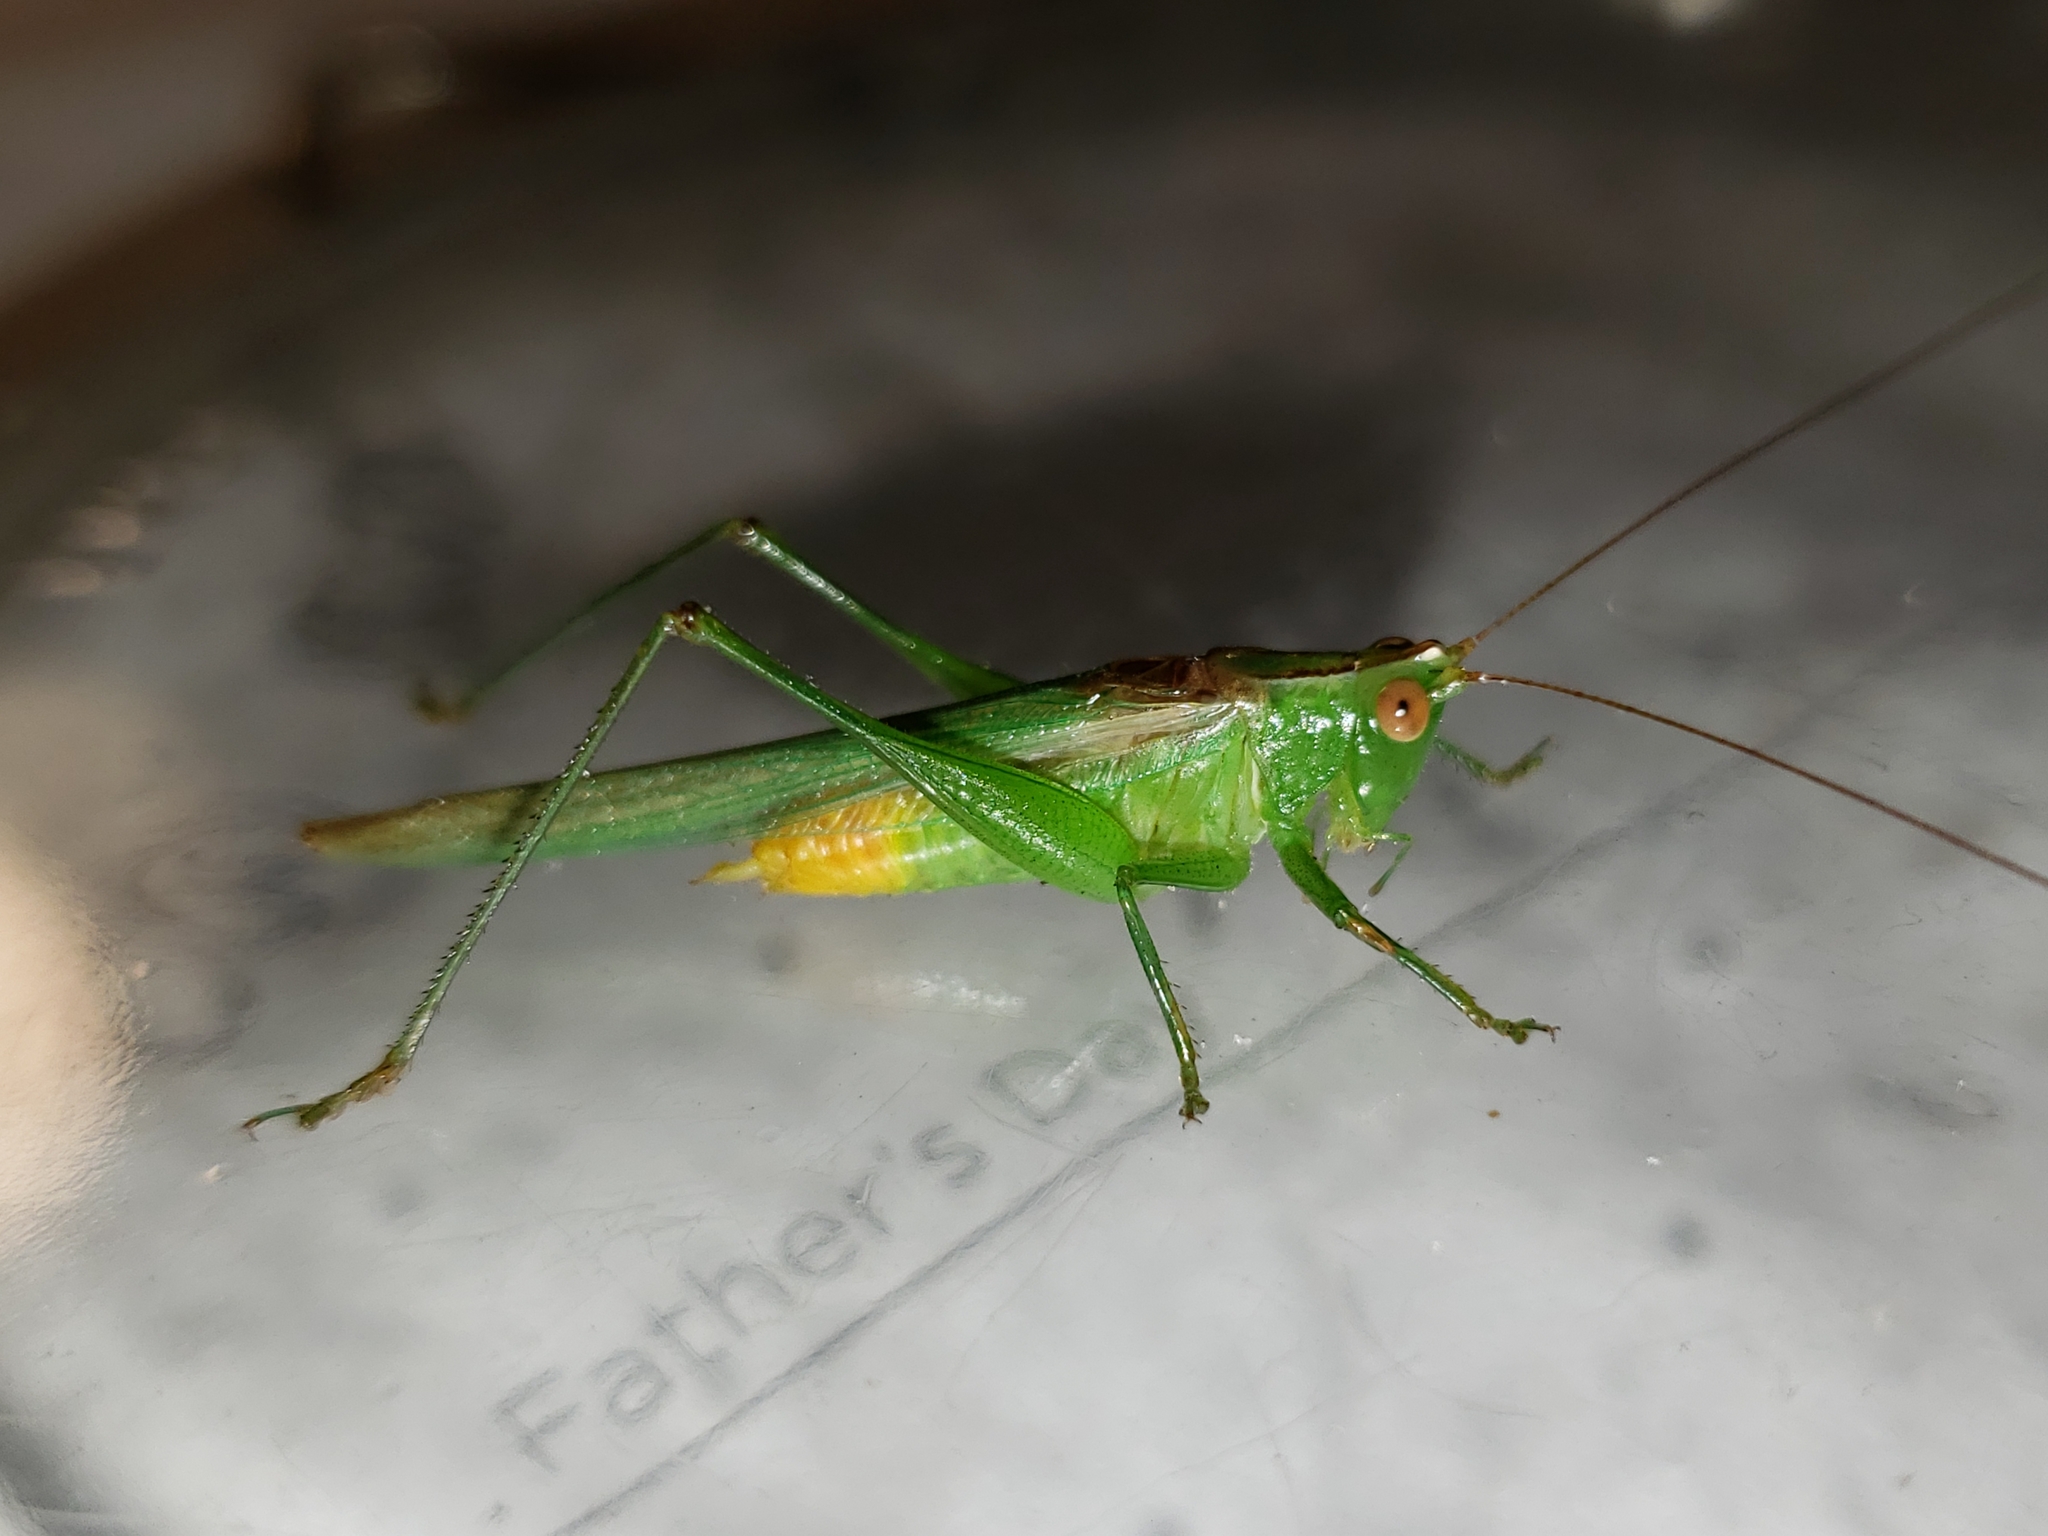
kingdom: Animalia
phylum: Arthropoda
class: Insecta
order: Orthoptera
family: Tettigoniidae
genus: Conocephalus
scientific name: Conocephalus cinereus
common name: Caribbean meadow katydid
